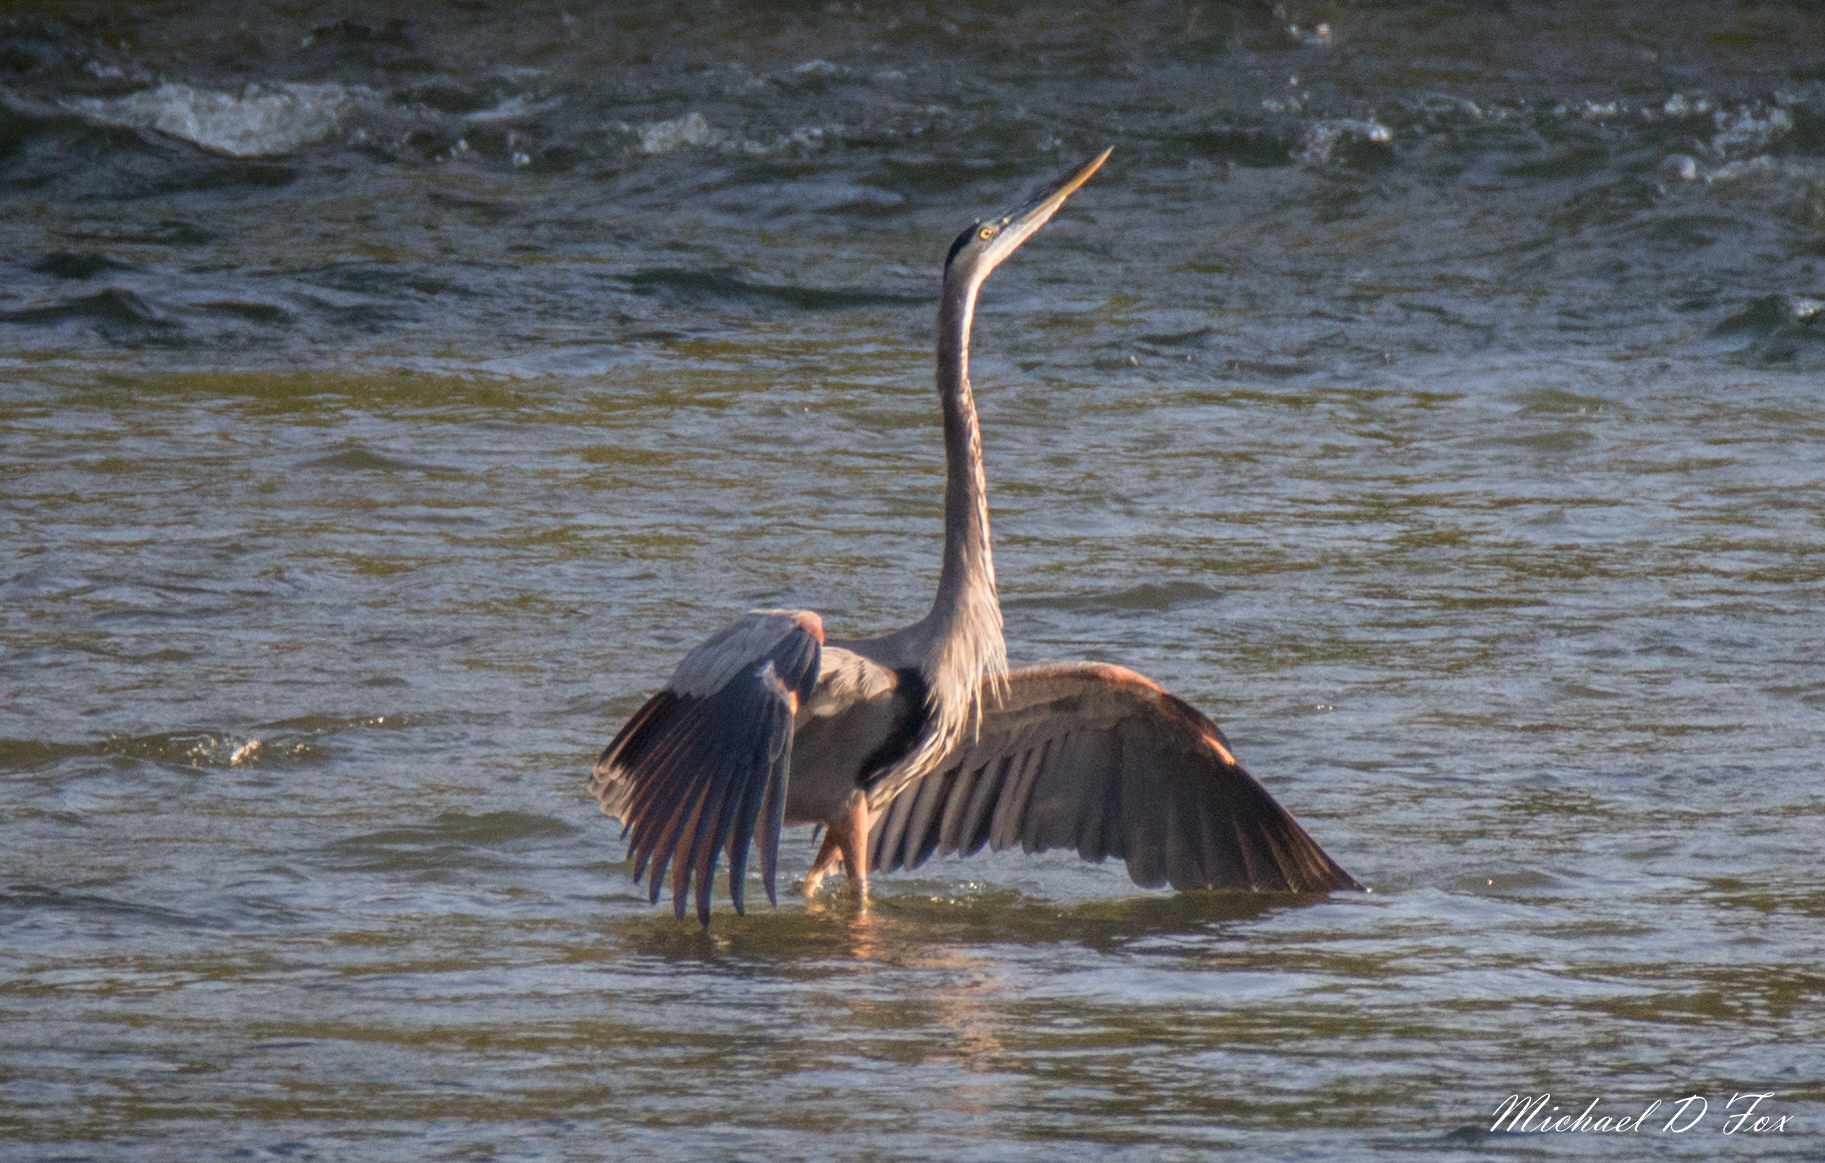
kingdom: Animalia
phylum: Chordata
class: Aves
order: Pelecaniformes
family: Ardeidae
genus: Ardea
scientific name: Ardea herodias
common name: Great blue heron
